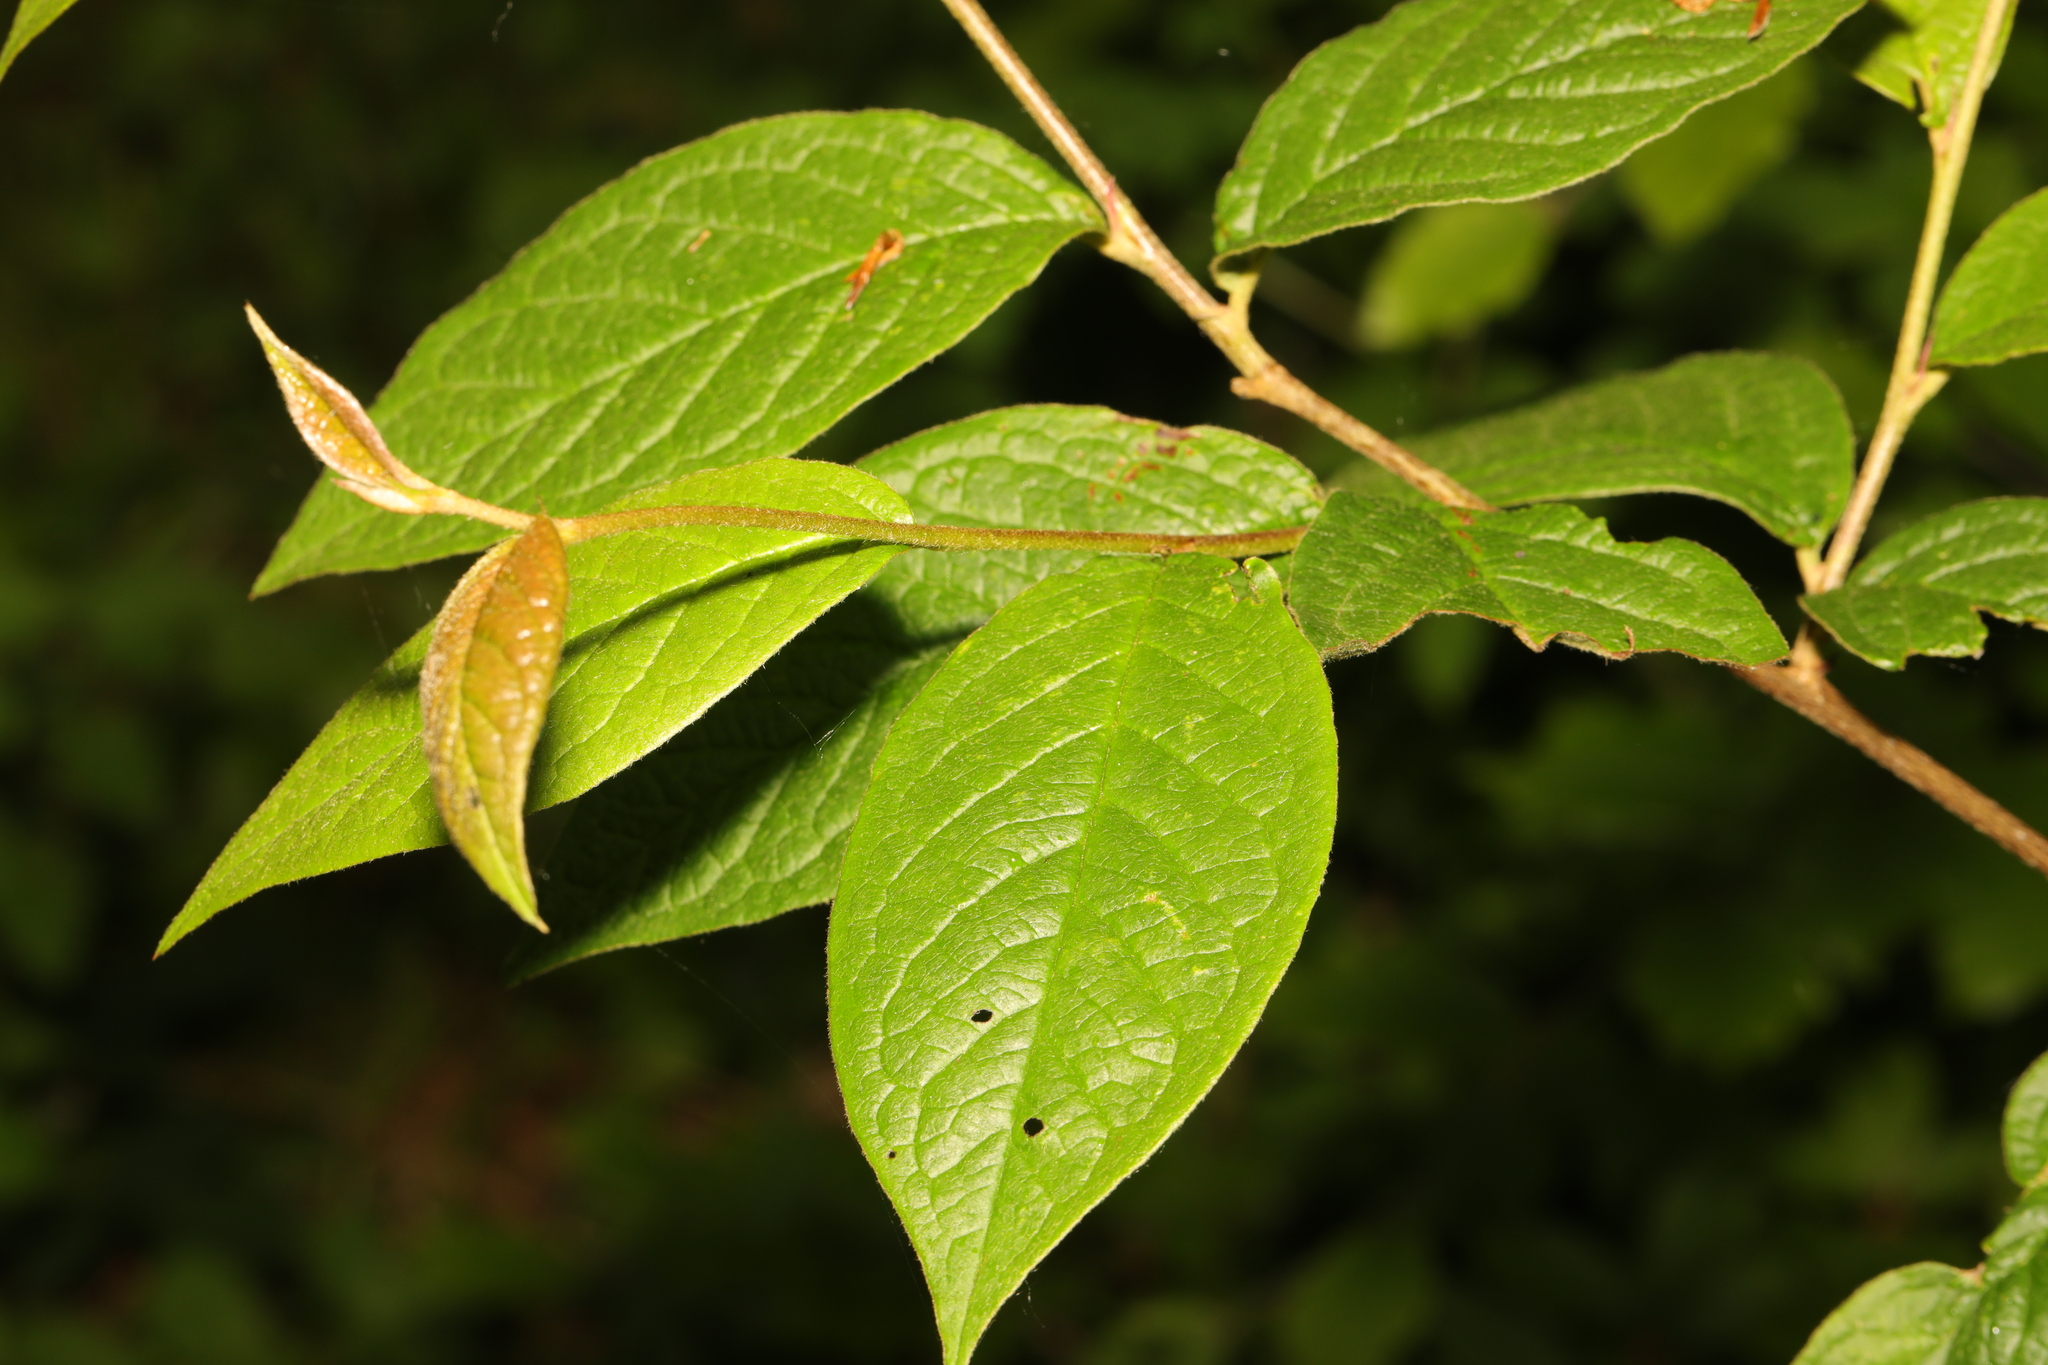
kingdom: Plantae
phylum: Tracheophyta
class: Magnoliopsida
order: Rosales
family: Rosaceae
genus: Cotoneaster
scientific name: Cotoneaster bullatus
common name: Hollyberry cotoneaster
